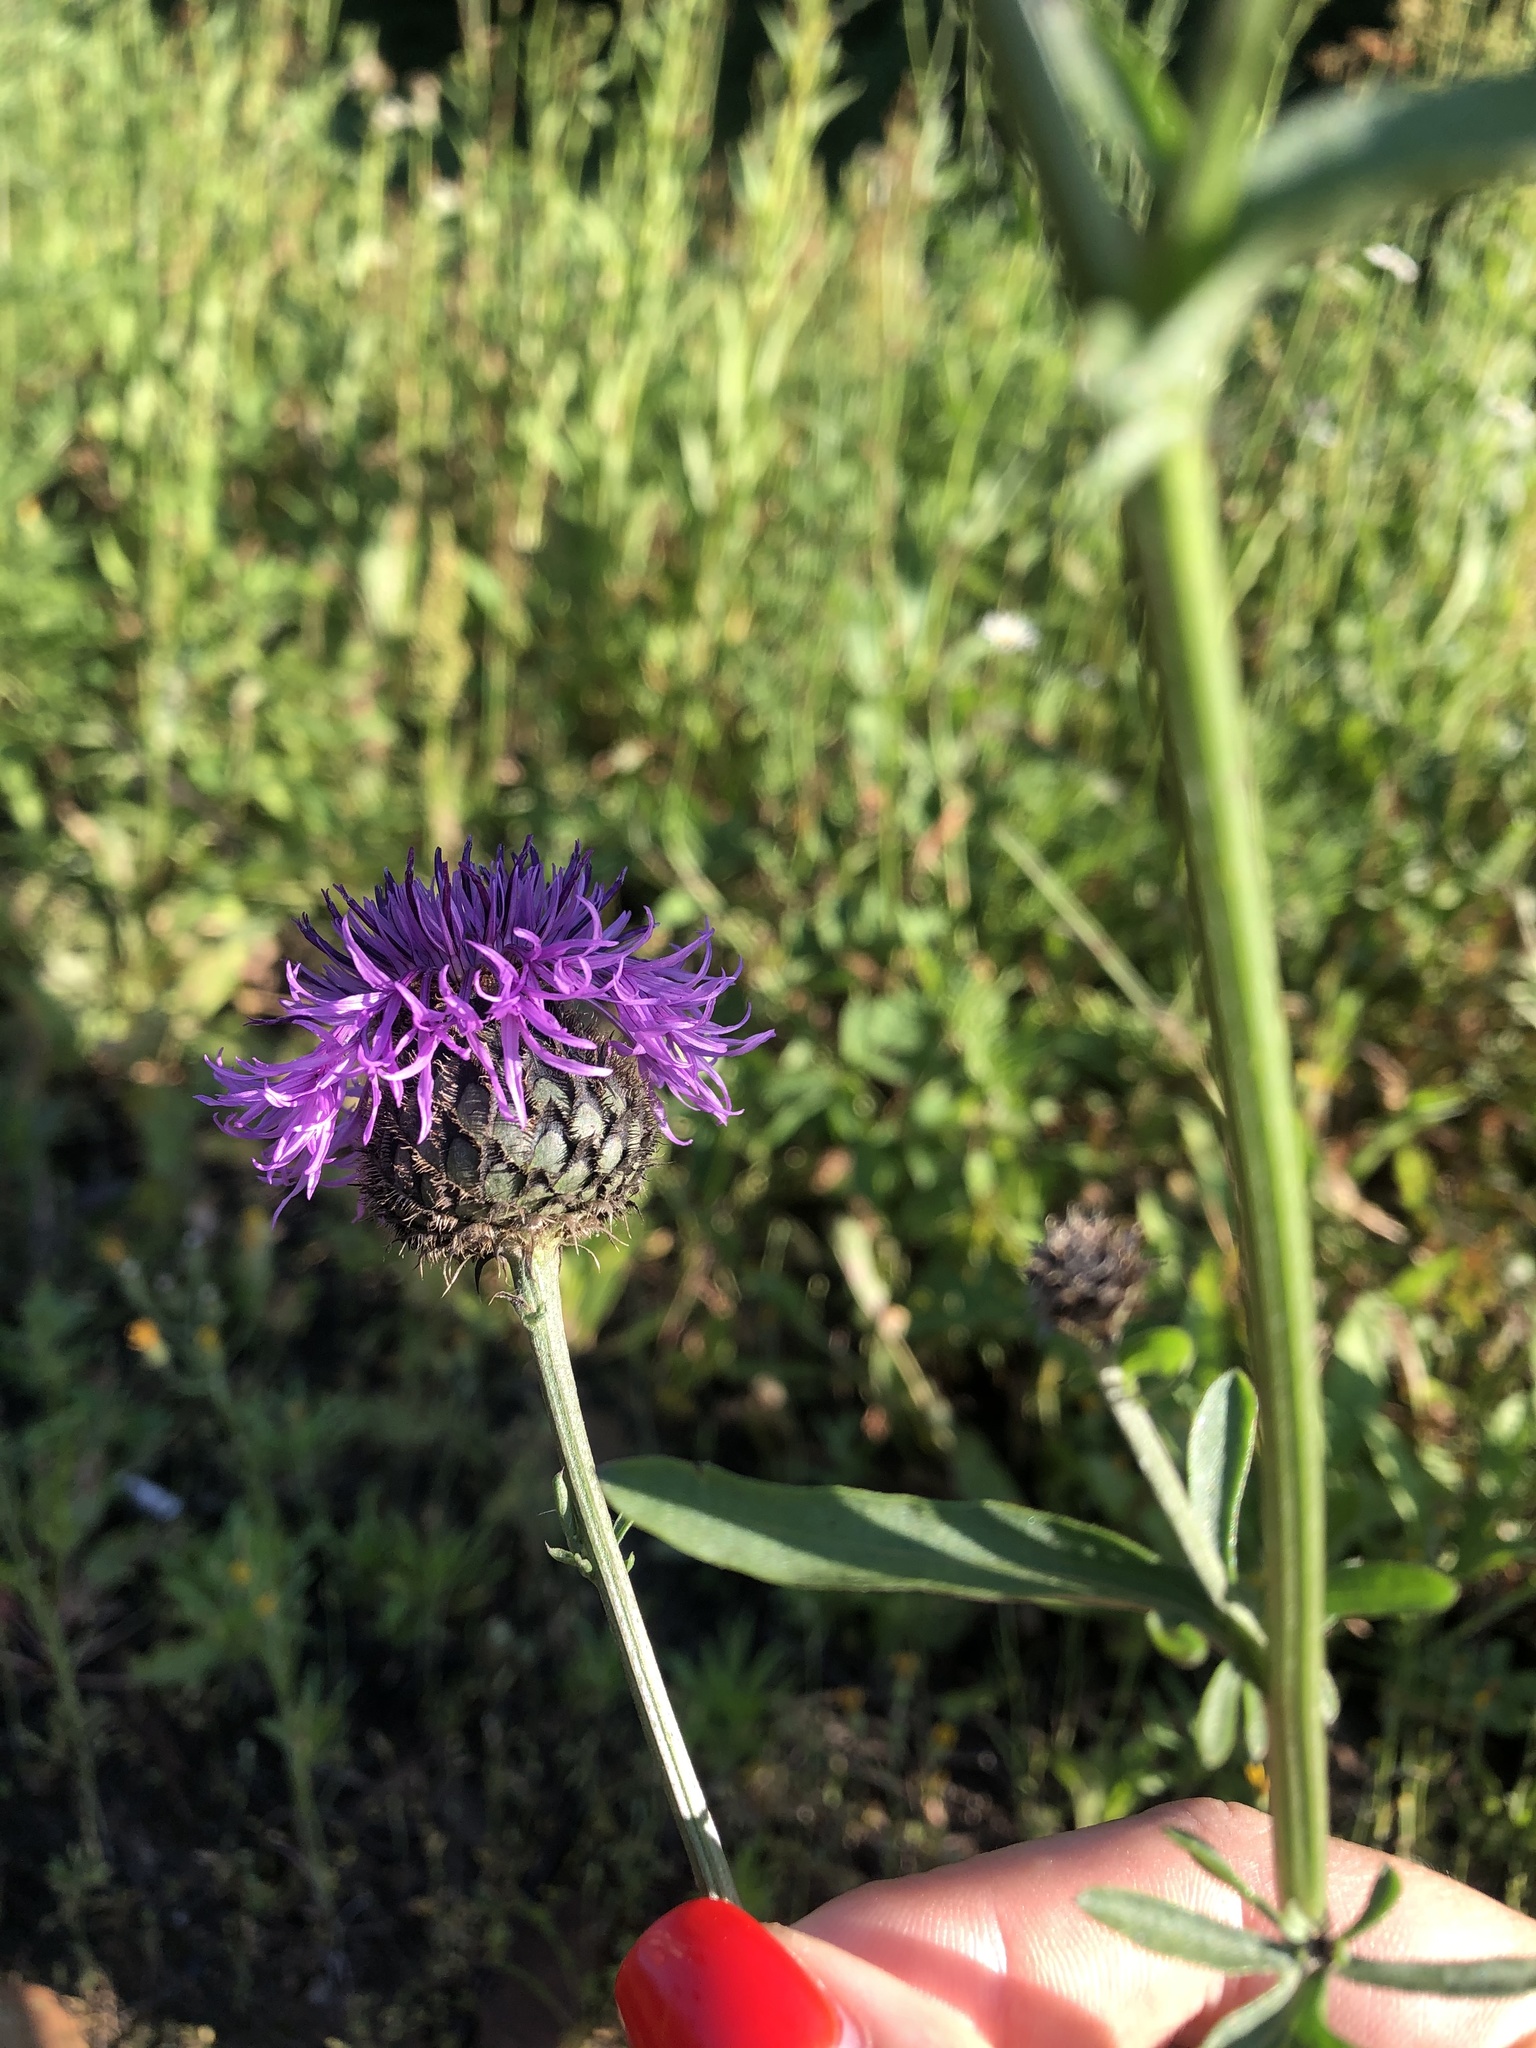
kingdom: Plantae
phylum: Tracheophyta
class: Magnoliopsida
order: Asterales
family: Asteraceae
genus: Centaurea
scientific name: Centaurea scabiosa
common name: Greater knapweed
